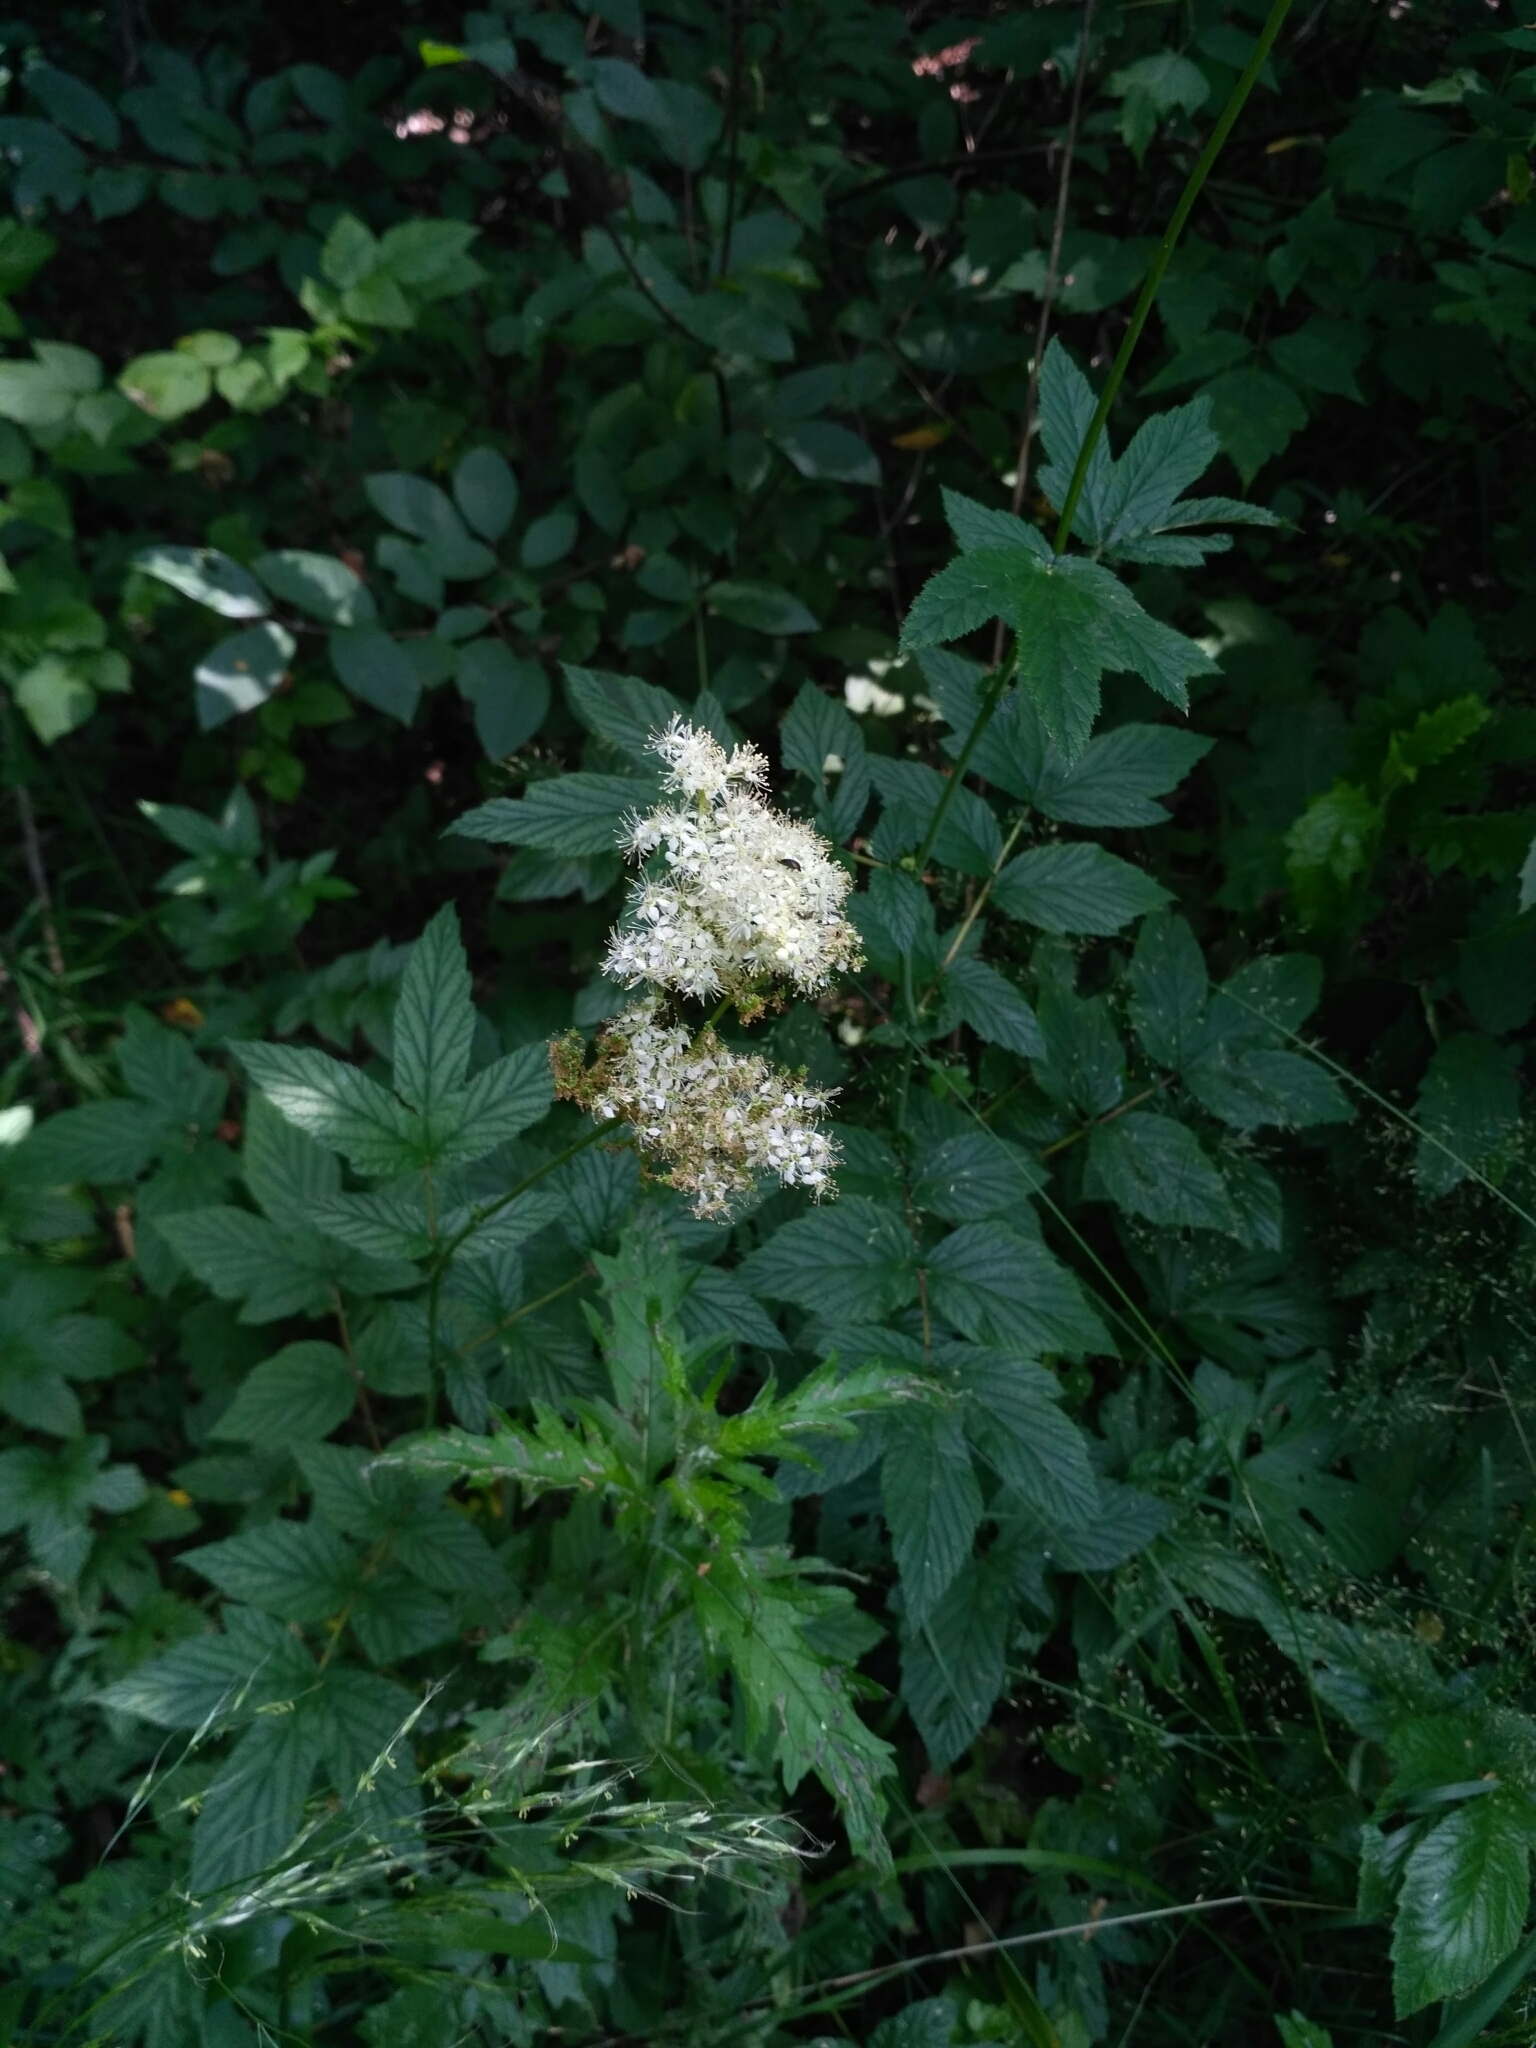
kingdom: Plantae
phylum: Tracheophyta
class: Magnoliopsida
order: Rosales
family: Rosaceae
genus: Filipendula
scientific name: Filipendula ulmaria
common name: Meadowsweet
